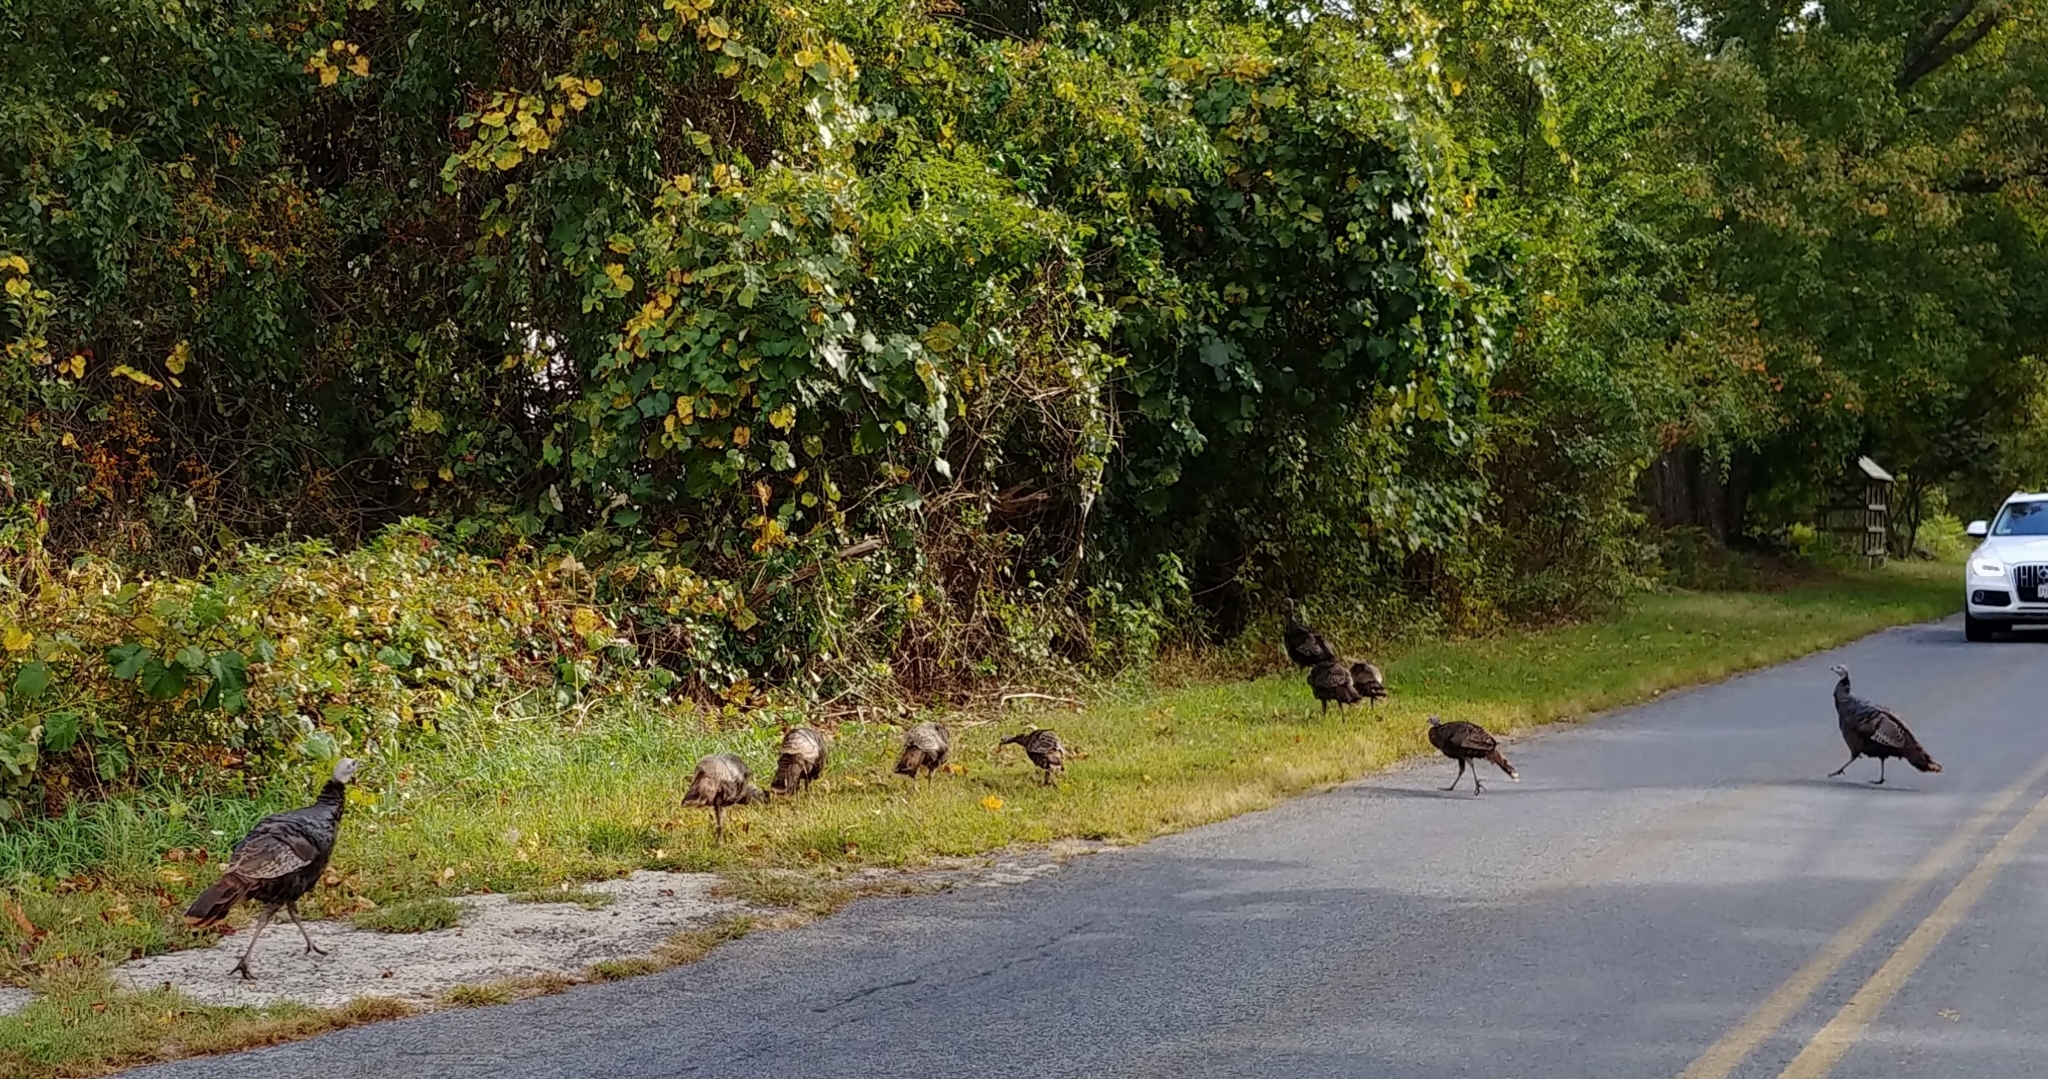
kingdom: Animalia
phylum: Chordata
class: Aves
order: Galliformes
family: Phasianidae
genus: Meleagris
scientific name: Meleagris gallopavo
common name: Wild turkey
